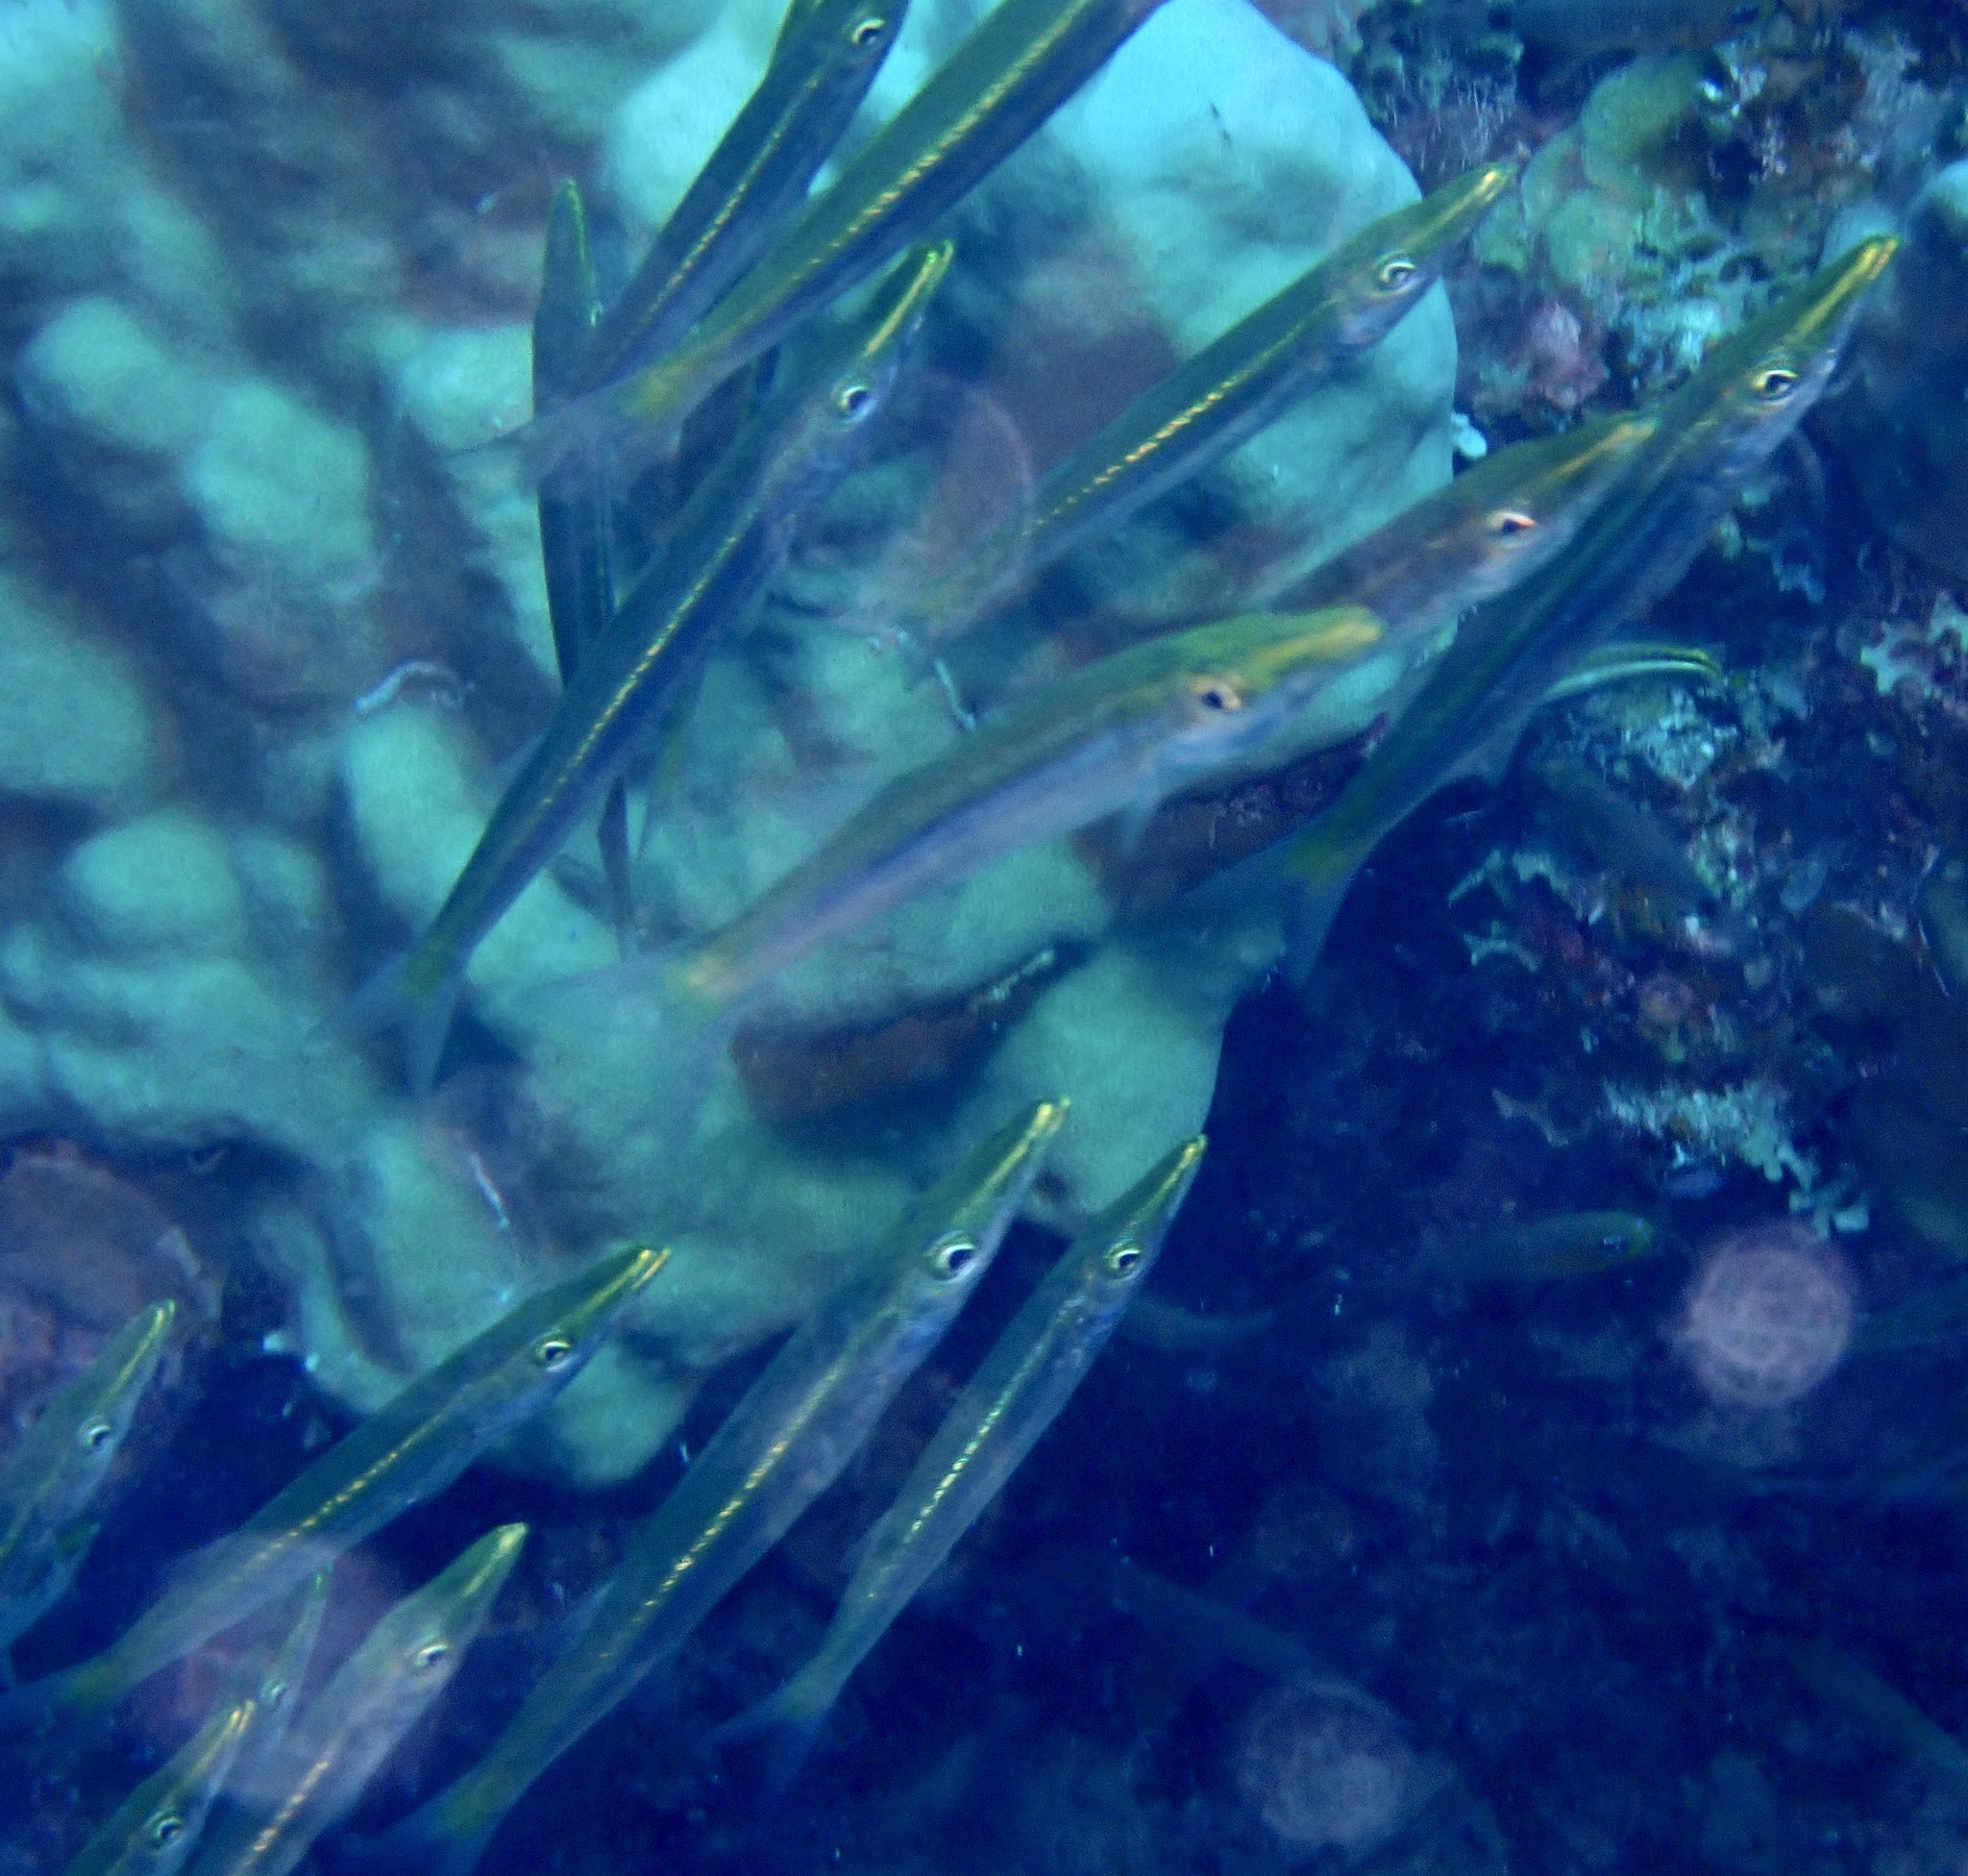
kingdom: Animalia
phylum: Chordata
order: Perciformes
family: Sphyraenidae
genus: Sphyraena
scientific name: Sphyraena obtusata
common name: Obtuse barracuda
